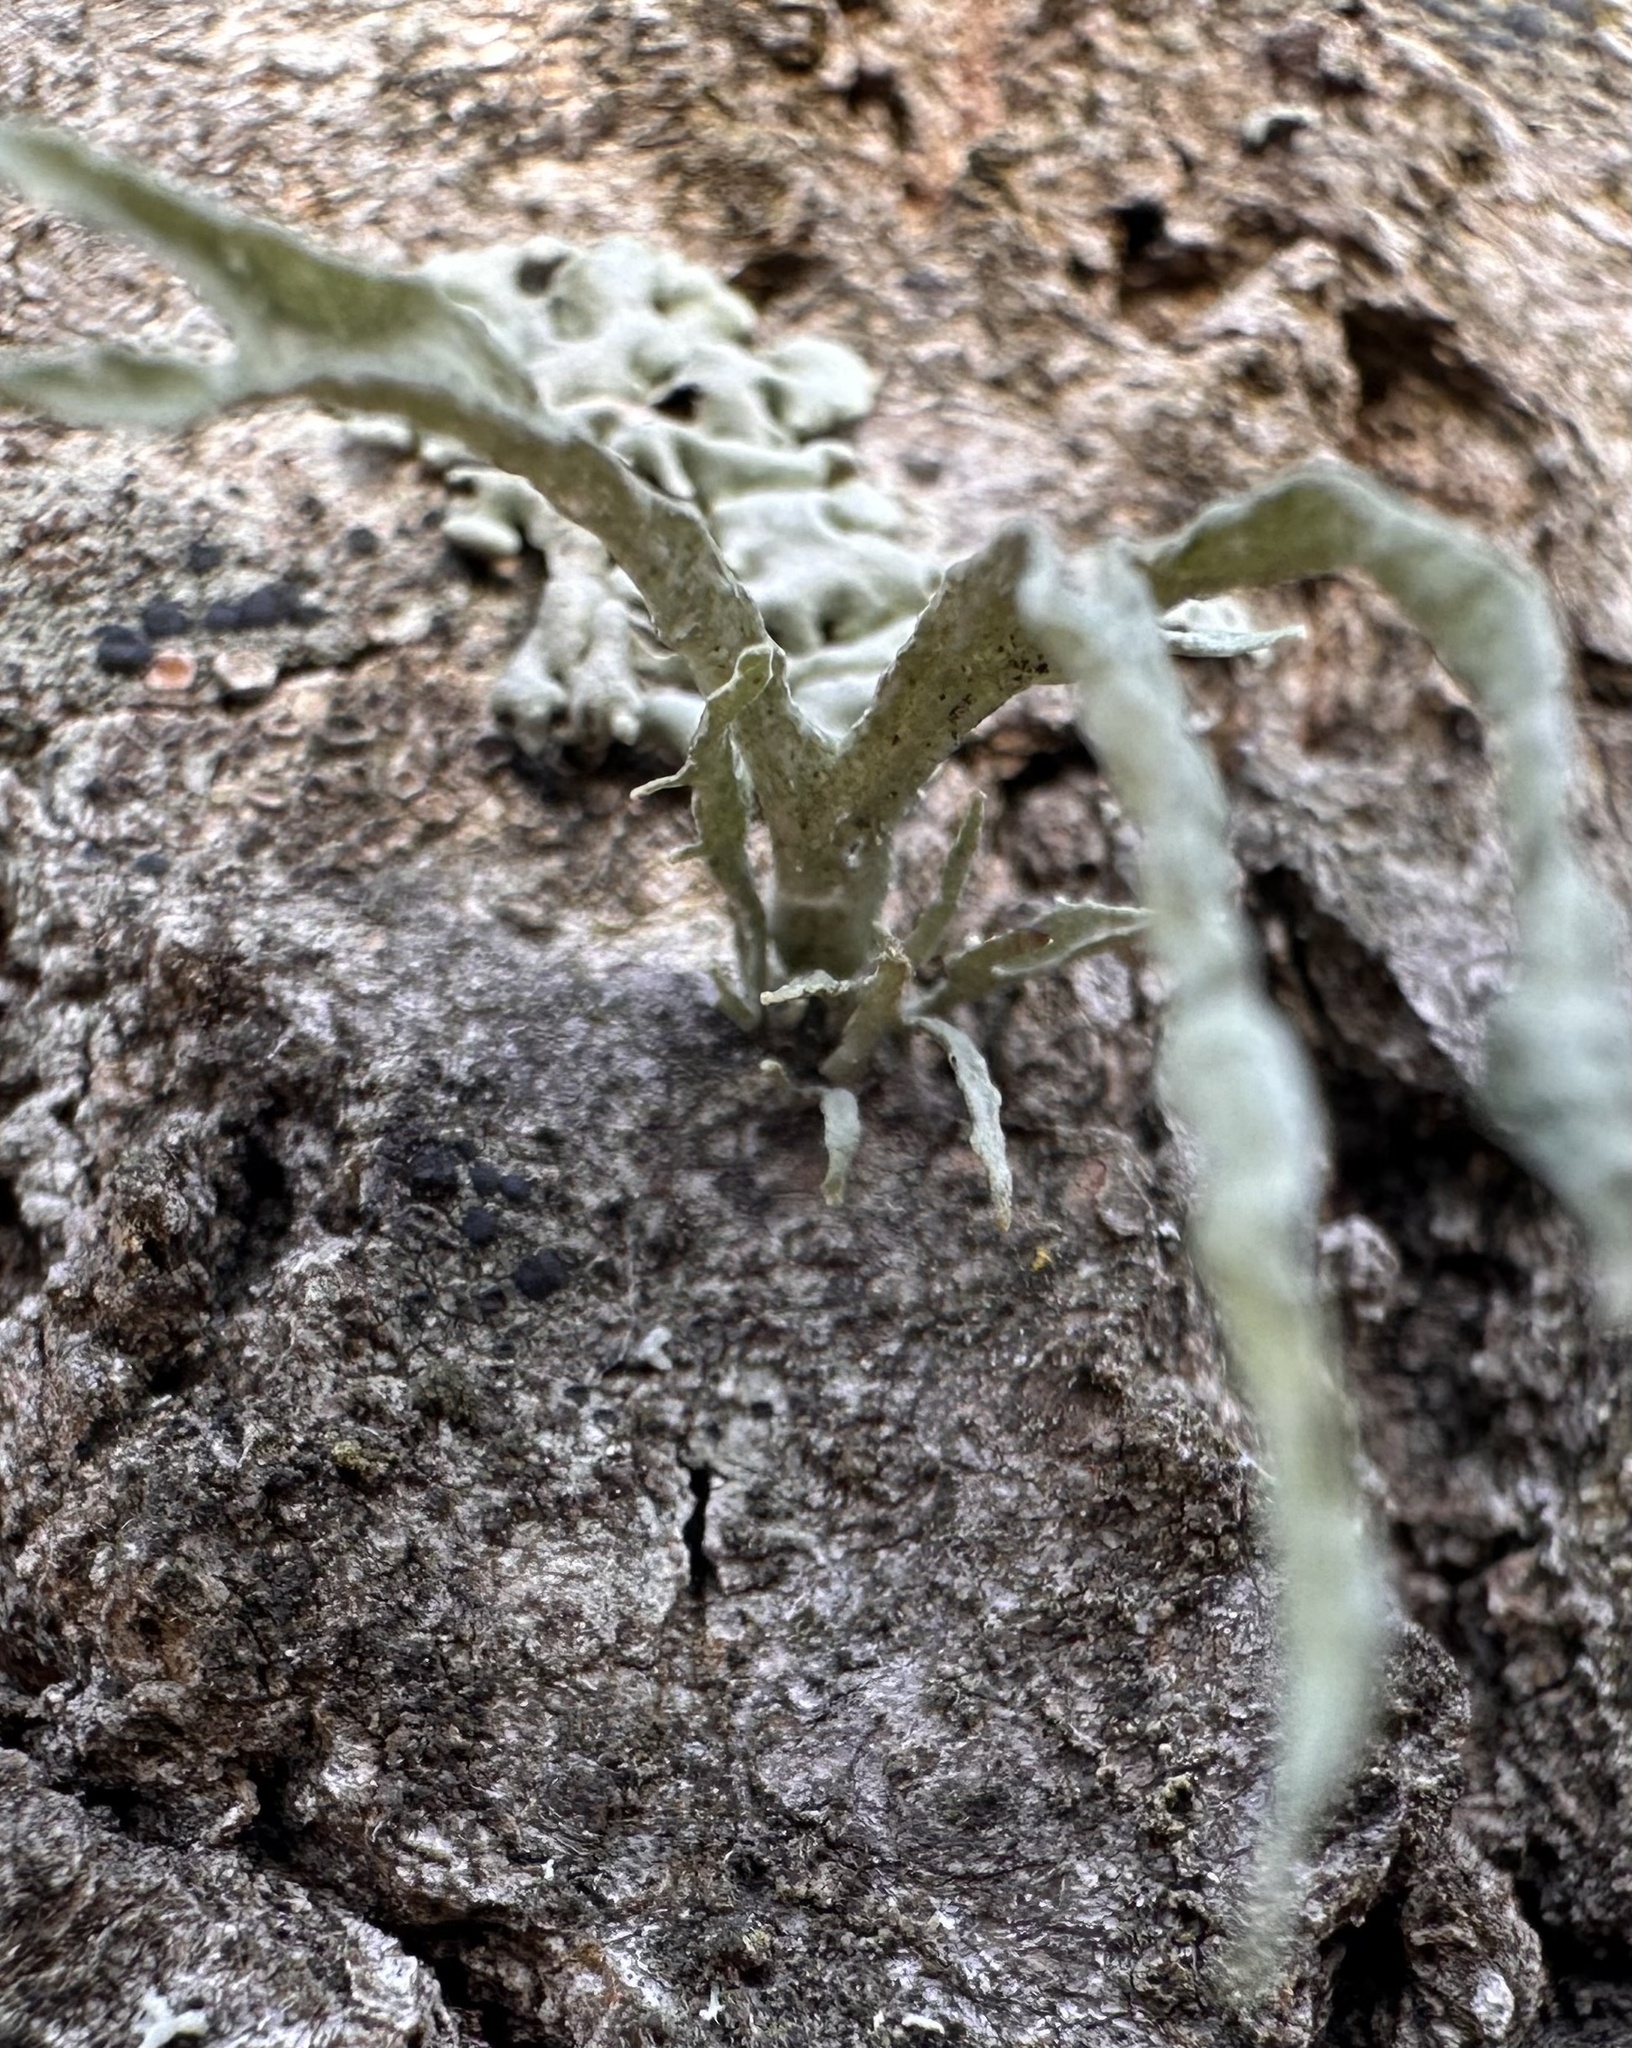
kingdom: Fungi
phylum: Ascomycota
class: Lecanoromycetes
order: Lecanorales
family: Ramalinaceae
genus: Ramalina
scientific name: Ramalina fraxinea
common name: Cartilage lichen
